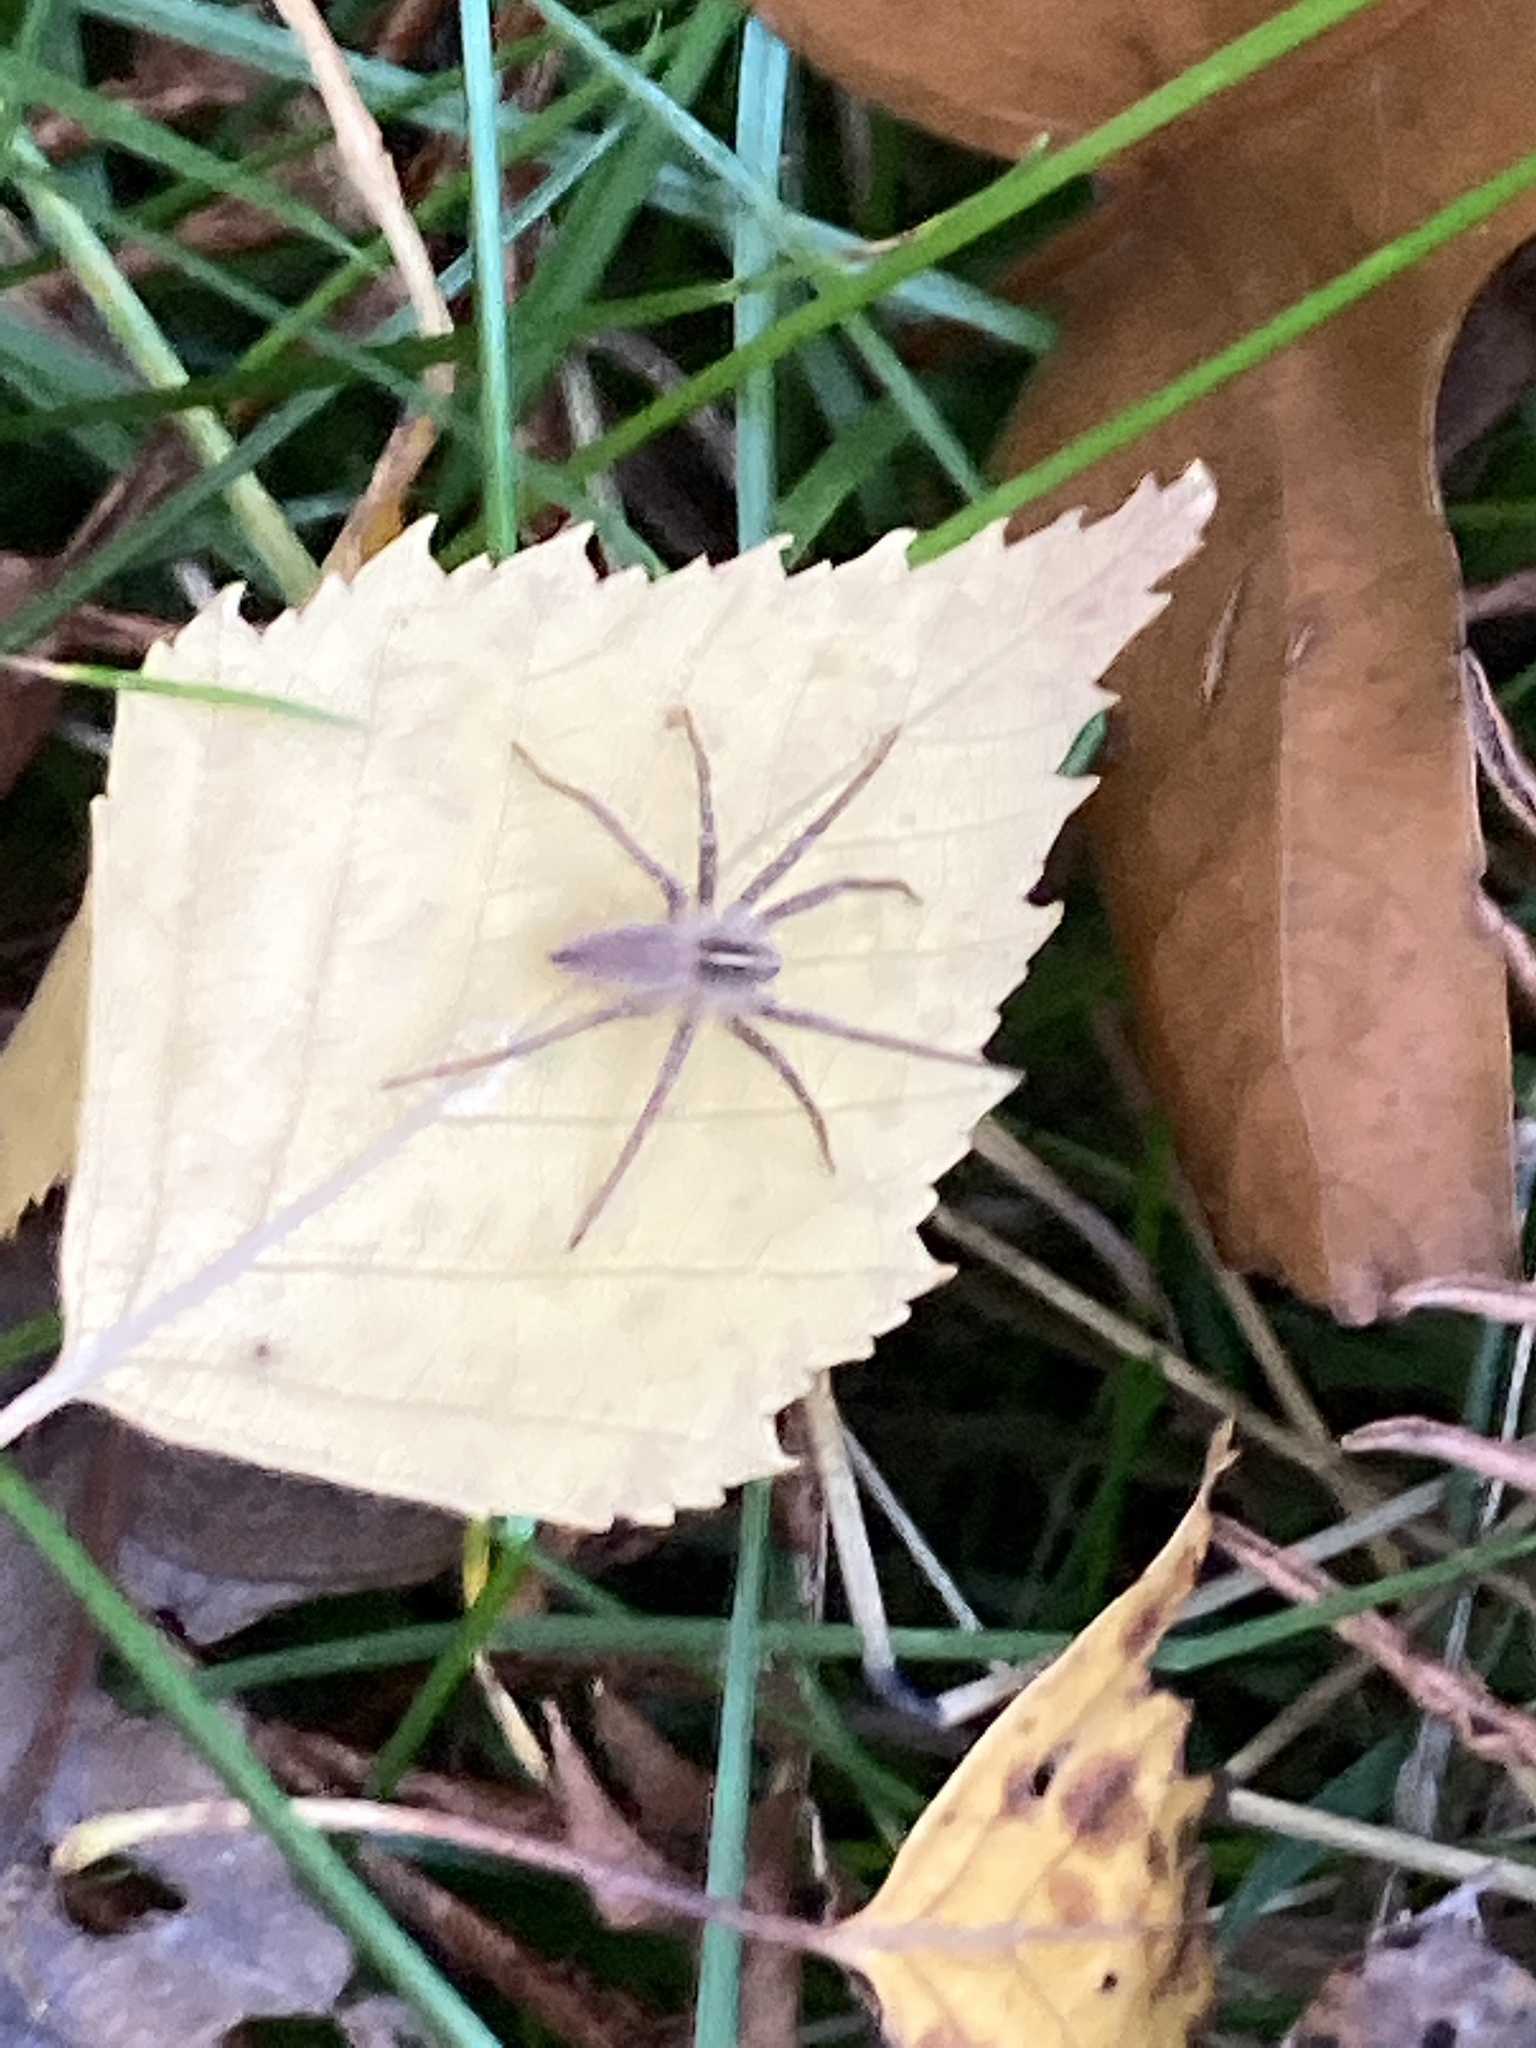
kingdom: Animalia
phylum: Arthropoda
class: Arachnida
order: Araneae
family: Pisauridae
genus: Pisaura
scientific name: Pisaura mirabilis
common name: Tent spider
